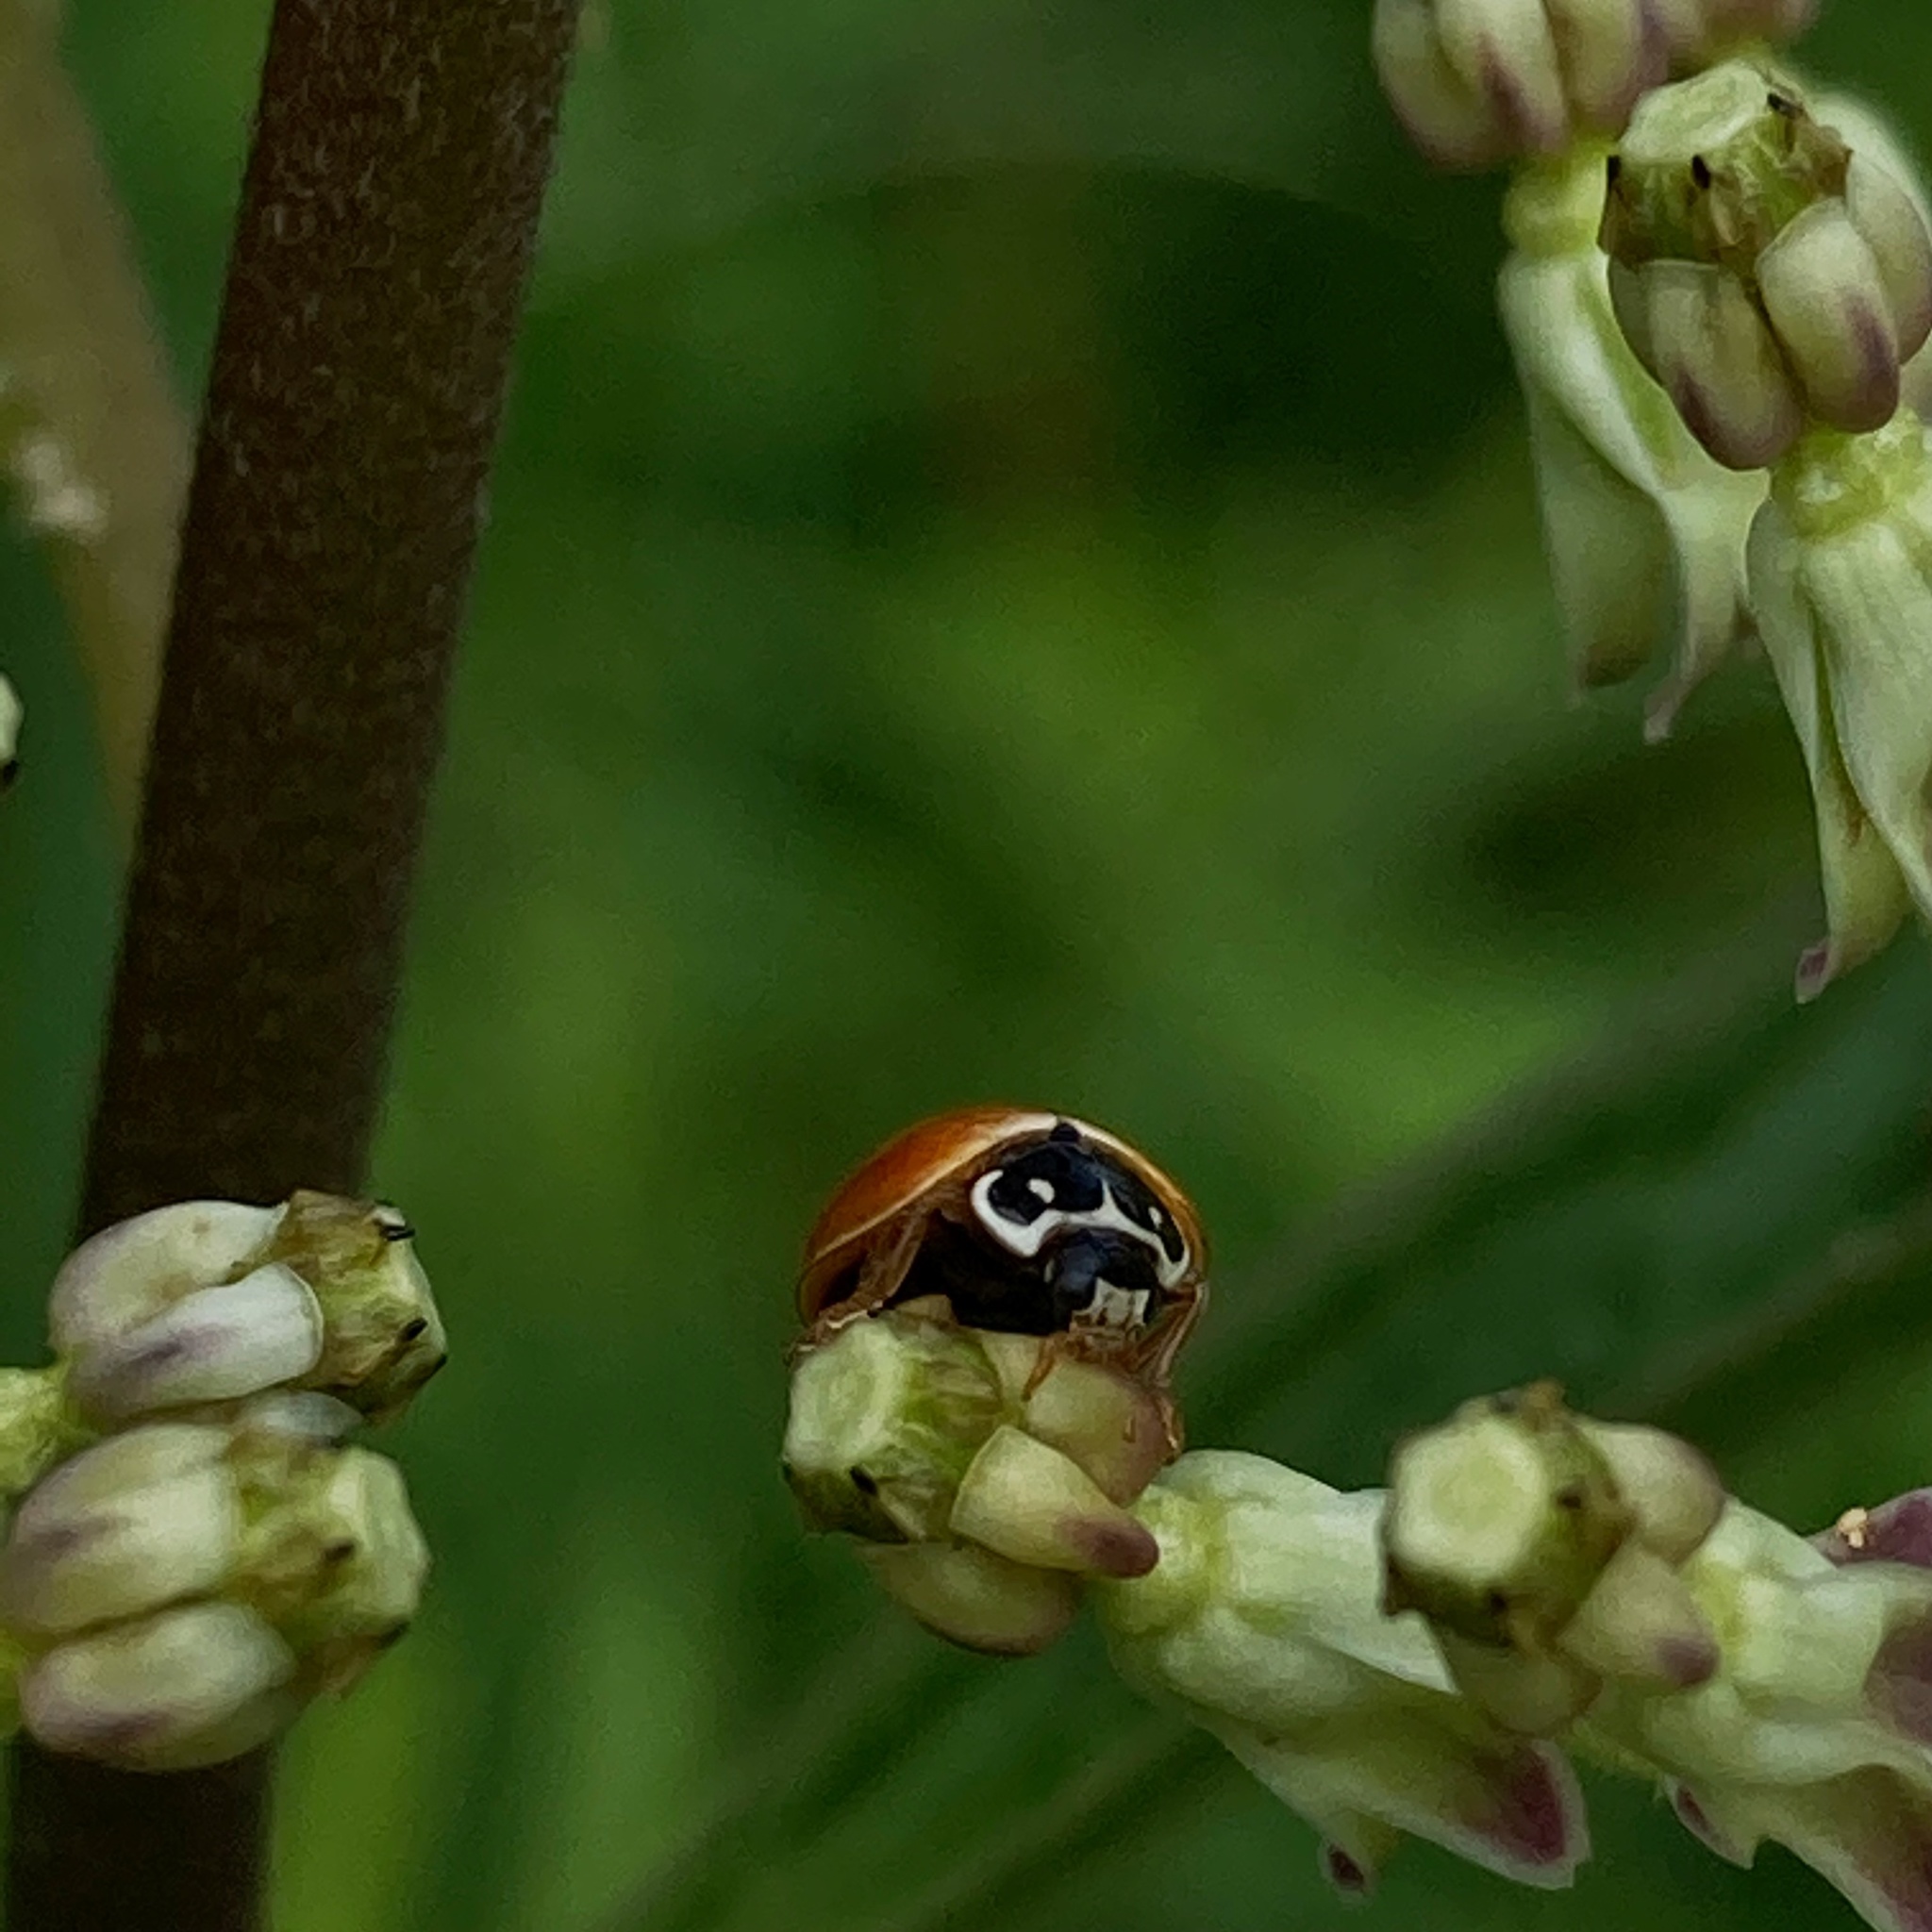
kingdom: Animalia
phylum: Arthropoda
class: Insecta
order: Coleoptera
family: Coccinellidae
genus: Cycloneda
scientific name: Cycloneda munda
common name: Polished lady beetle
